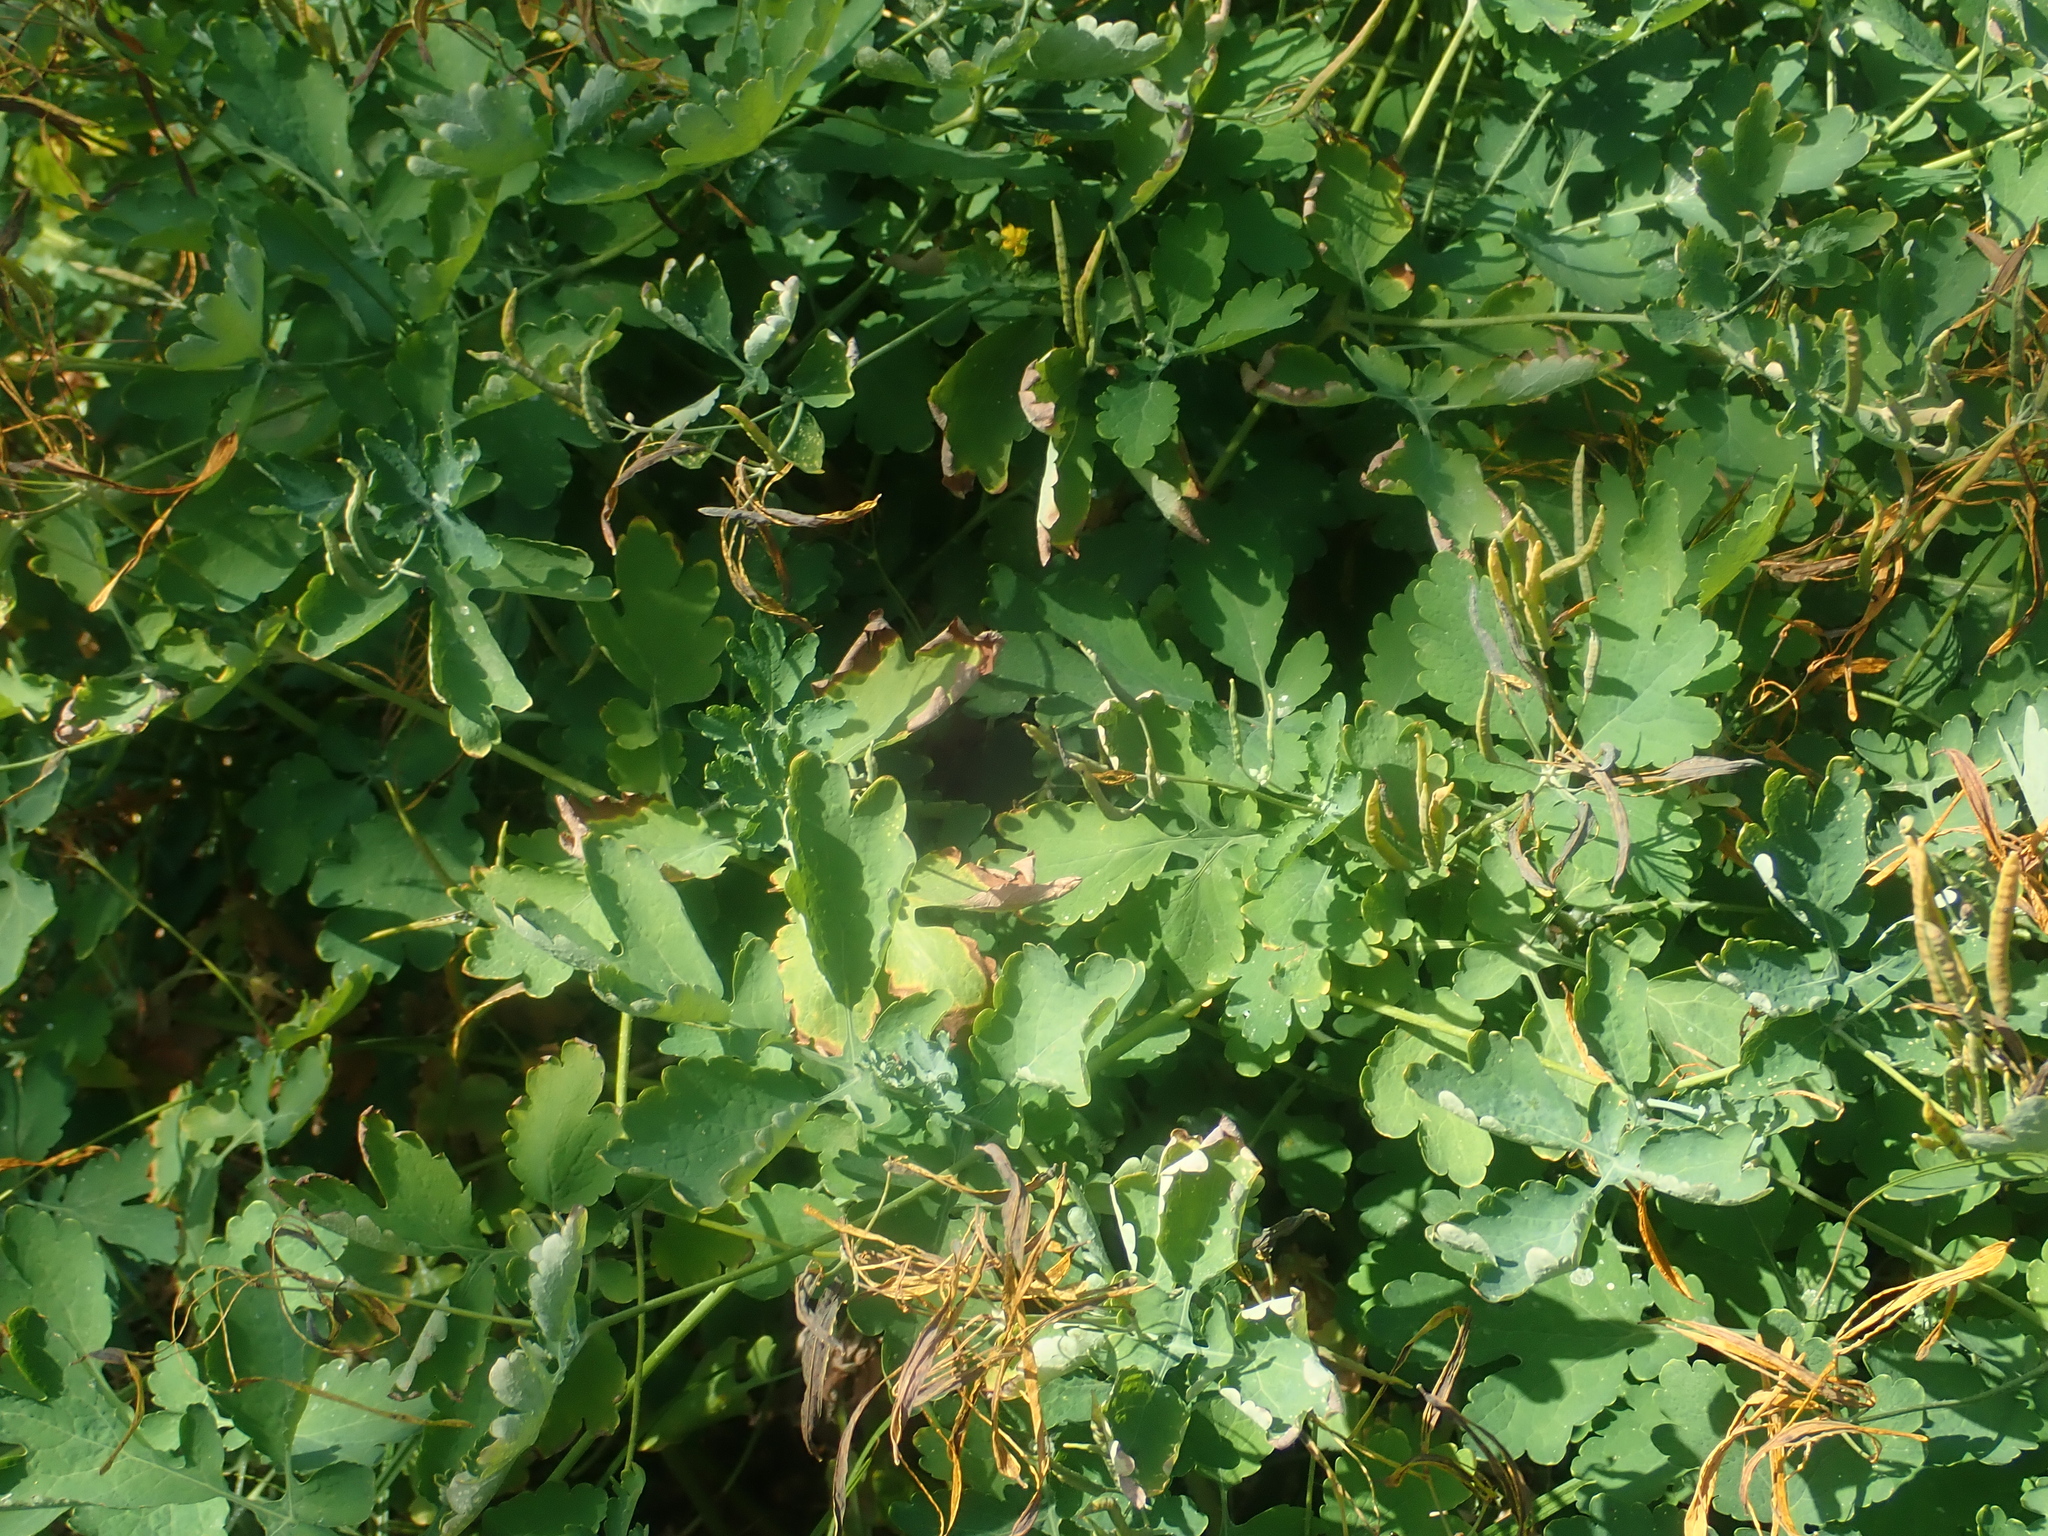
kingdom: Plantae
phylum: Tracheophyta
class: Magnoliopsida
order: Ranunculales
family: Papaveraceae
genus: Chelidonium
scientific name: Chelidonium majus
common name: Greater celandine
